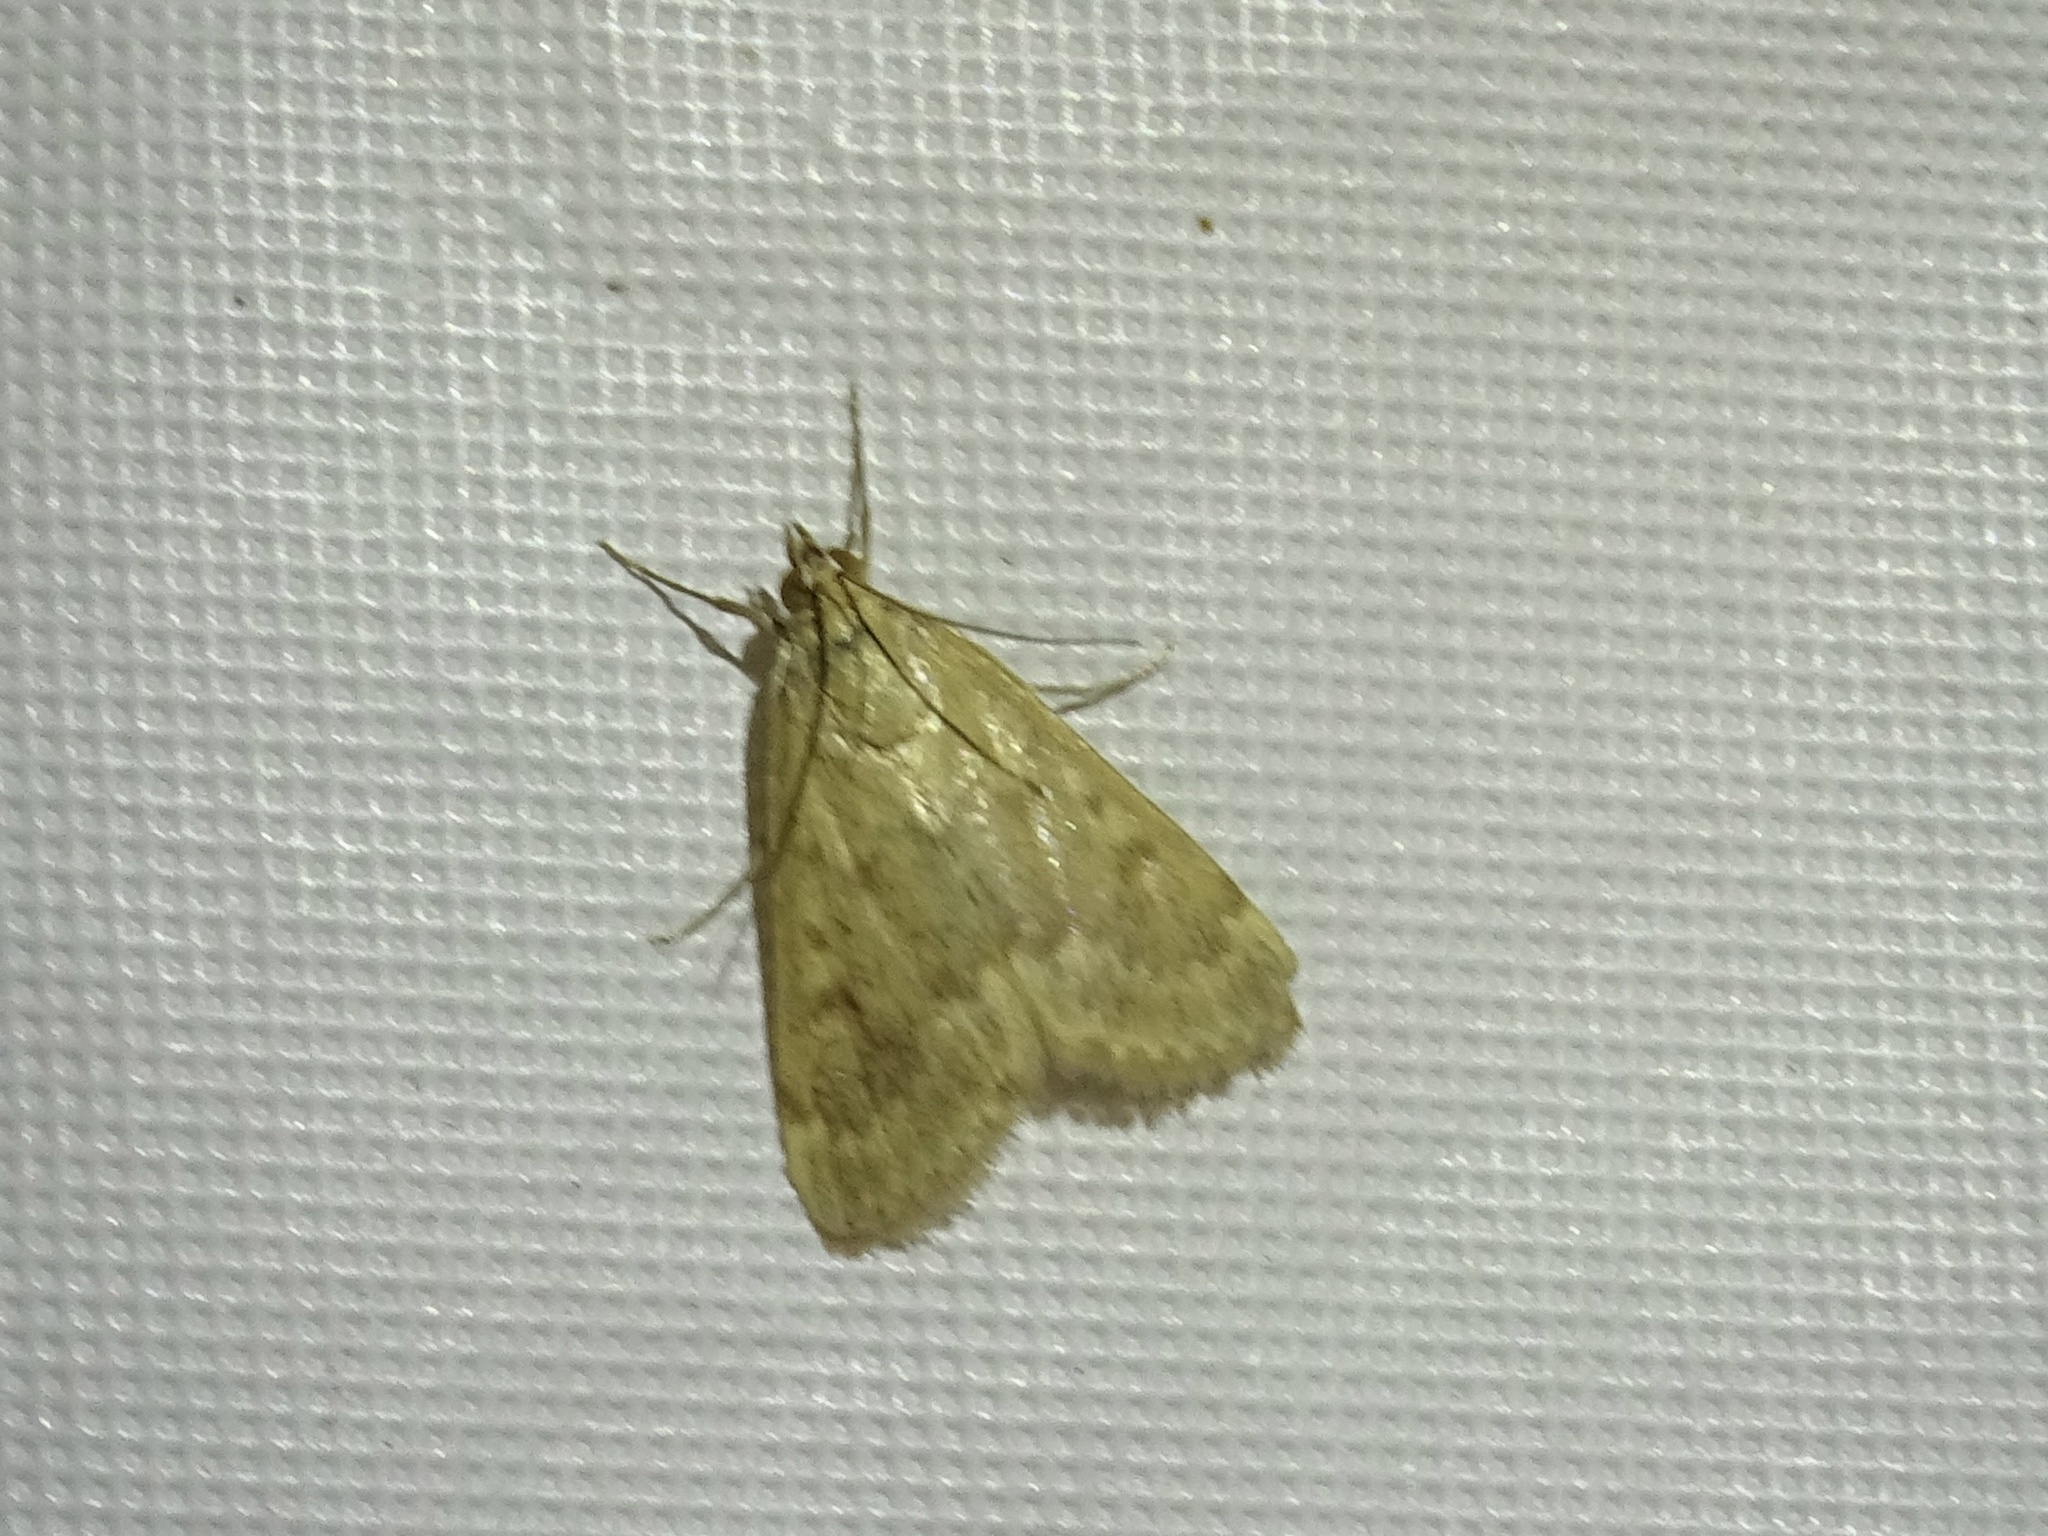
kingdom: Animalia
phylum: Arthropoda
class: Insecta
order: Lepidoptera
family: Crambidae
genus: Achyra
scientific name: Achyra rantalis
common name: Garden webworm
